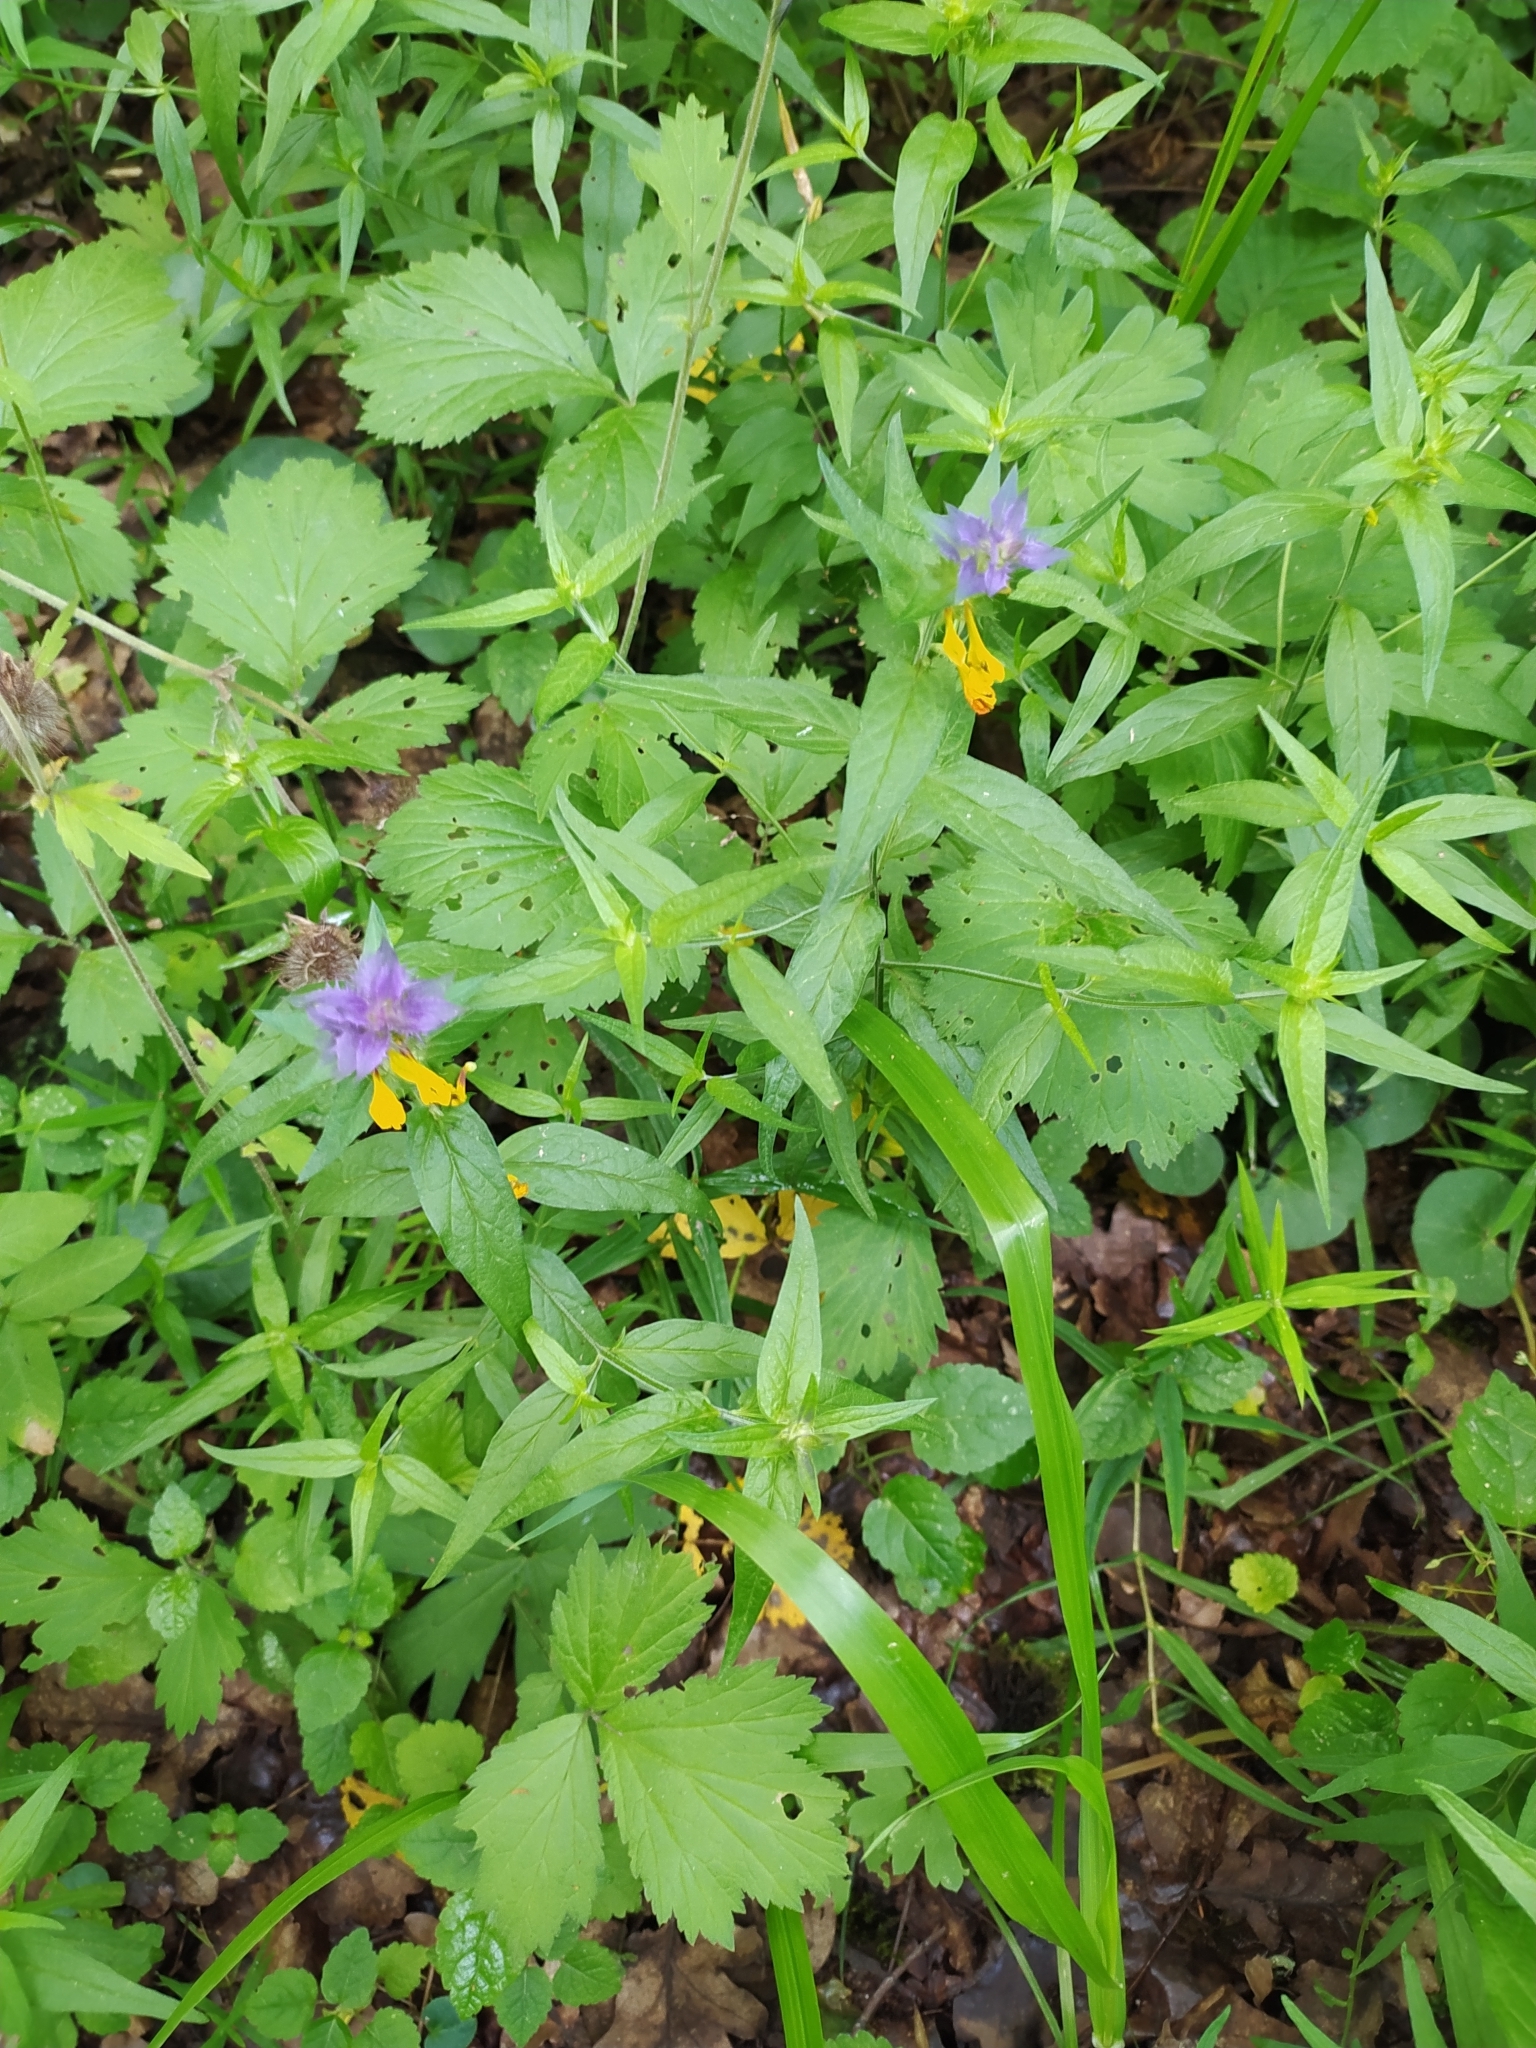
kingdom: Plantae
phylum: Tracheophyta
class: Magnoliopsida
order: Lamiales
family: Orobanchaceae
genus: Melampyrum
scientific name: Melampyrum nemorosum
